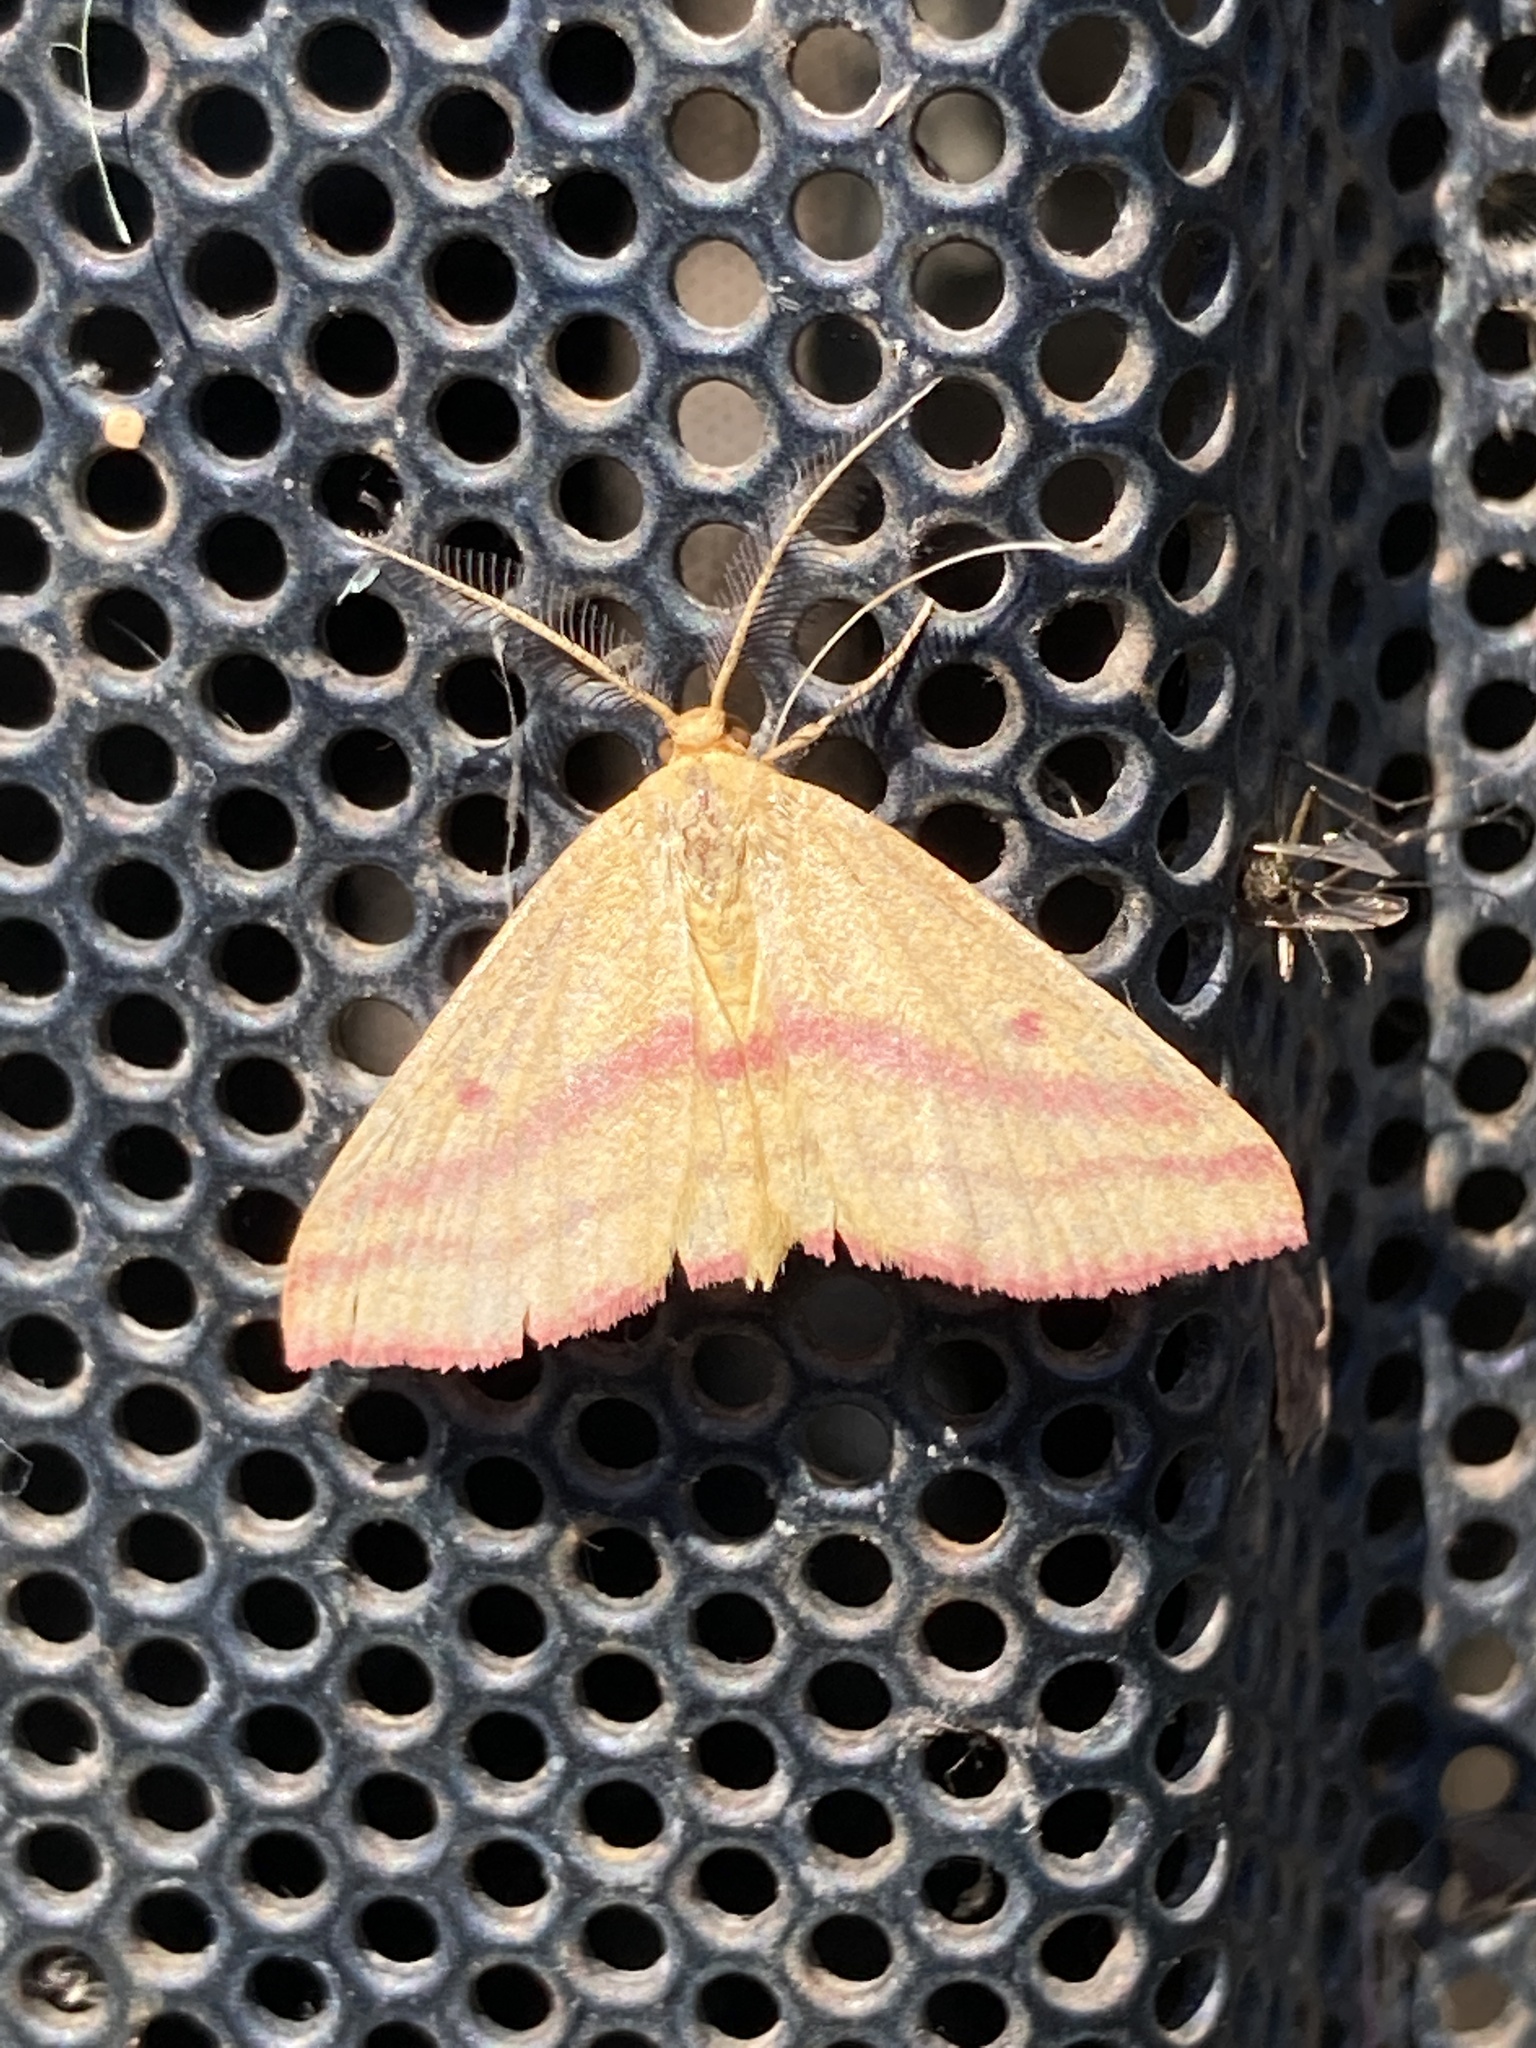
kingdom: Animalia
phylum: Arthropoda
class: Insecta
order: Lepidoptera
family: Geometridae
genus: Haematopis
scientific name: Haematopis grataria
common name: Chickweed geometer
